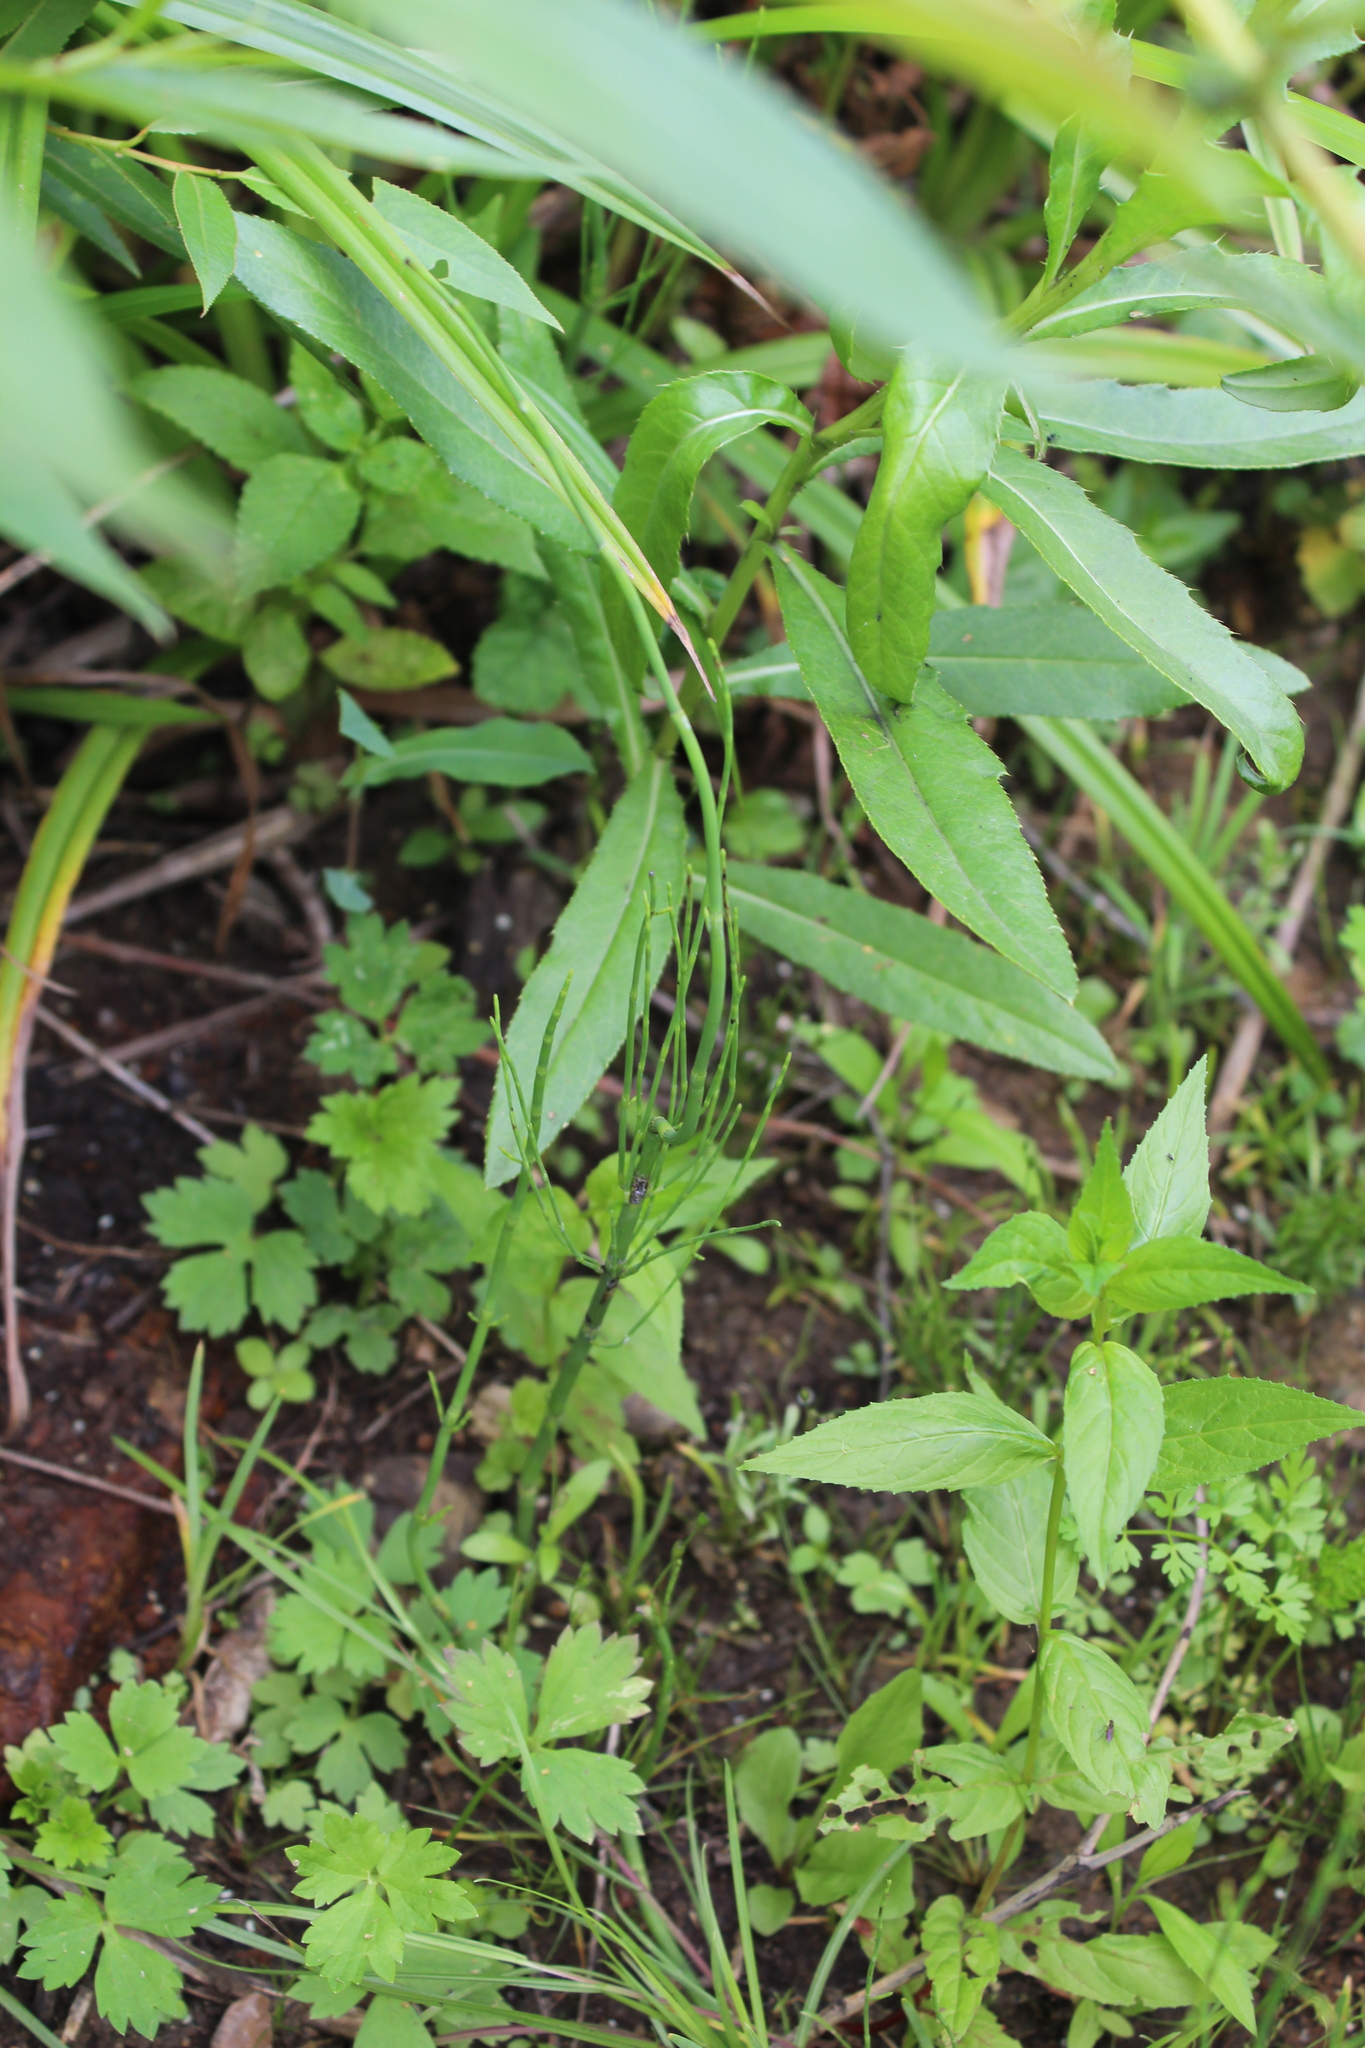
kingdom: Plantae
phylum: Tracheophyta
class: Polypodiopsida
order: Equisetales
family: Equisetaceae
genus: Equisetum
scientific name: Equisetum fluviatile
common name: Water horsetail
